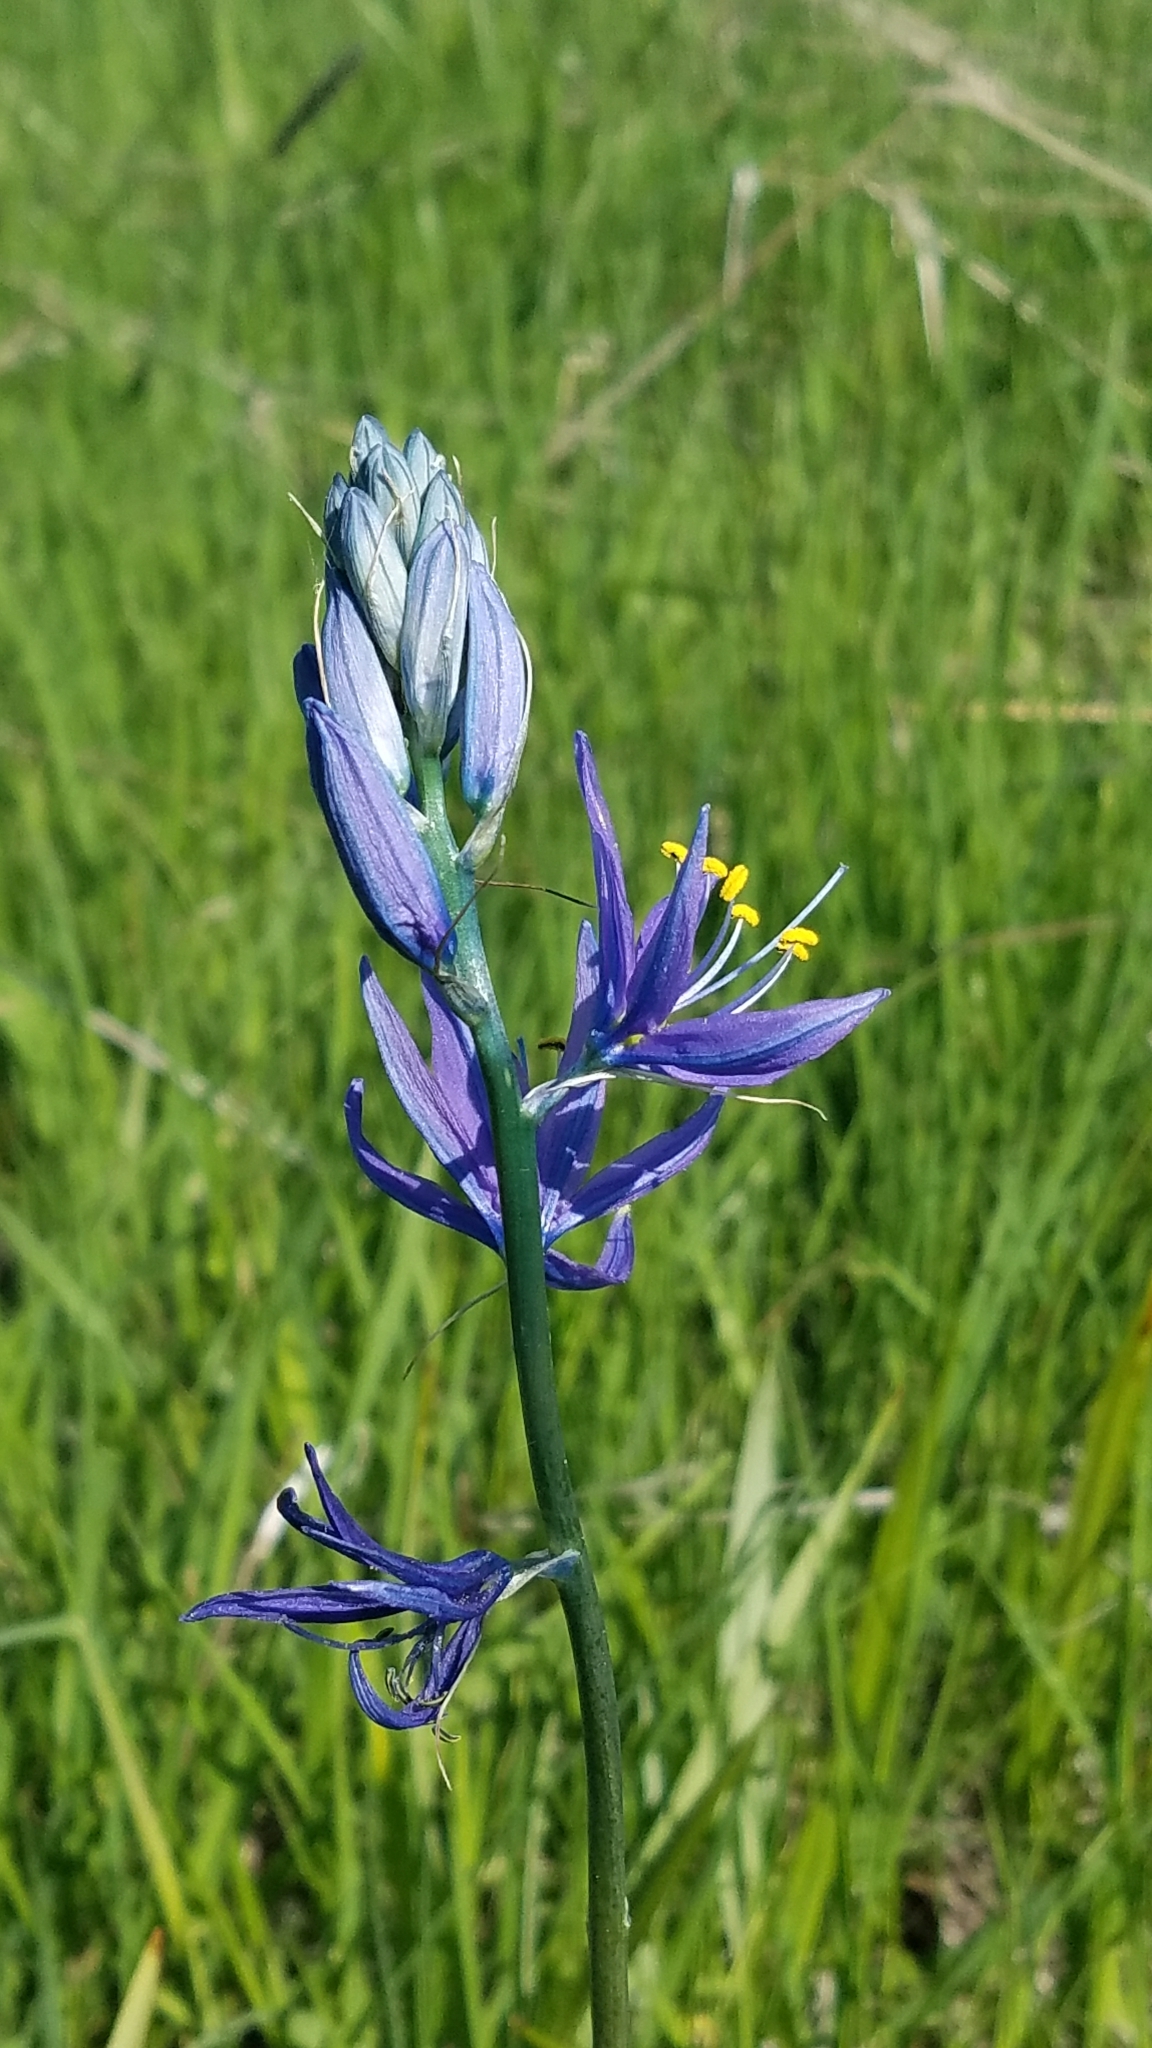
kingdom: Plantae
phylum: Tracheophyta
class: Liliopsida
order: Asparagales
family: Asparagaceae
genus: Camassia
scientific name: Camassia quamash
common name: Common camas
